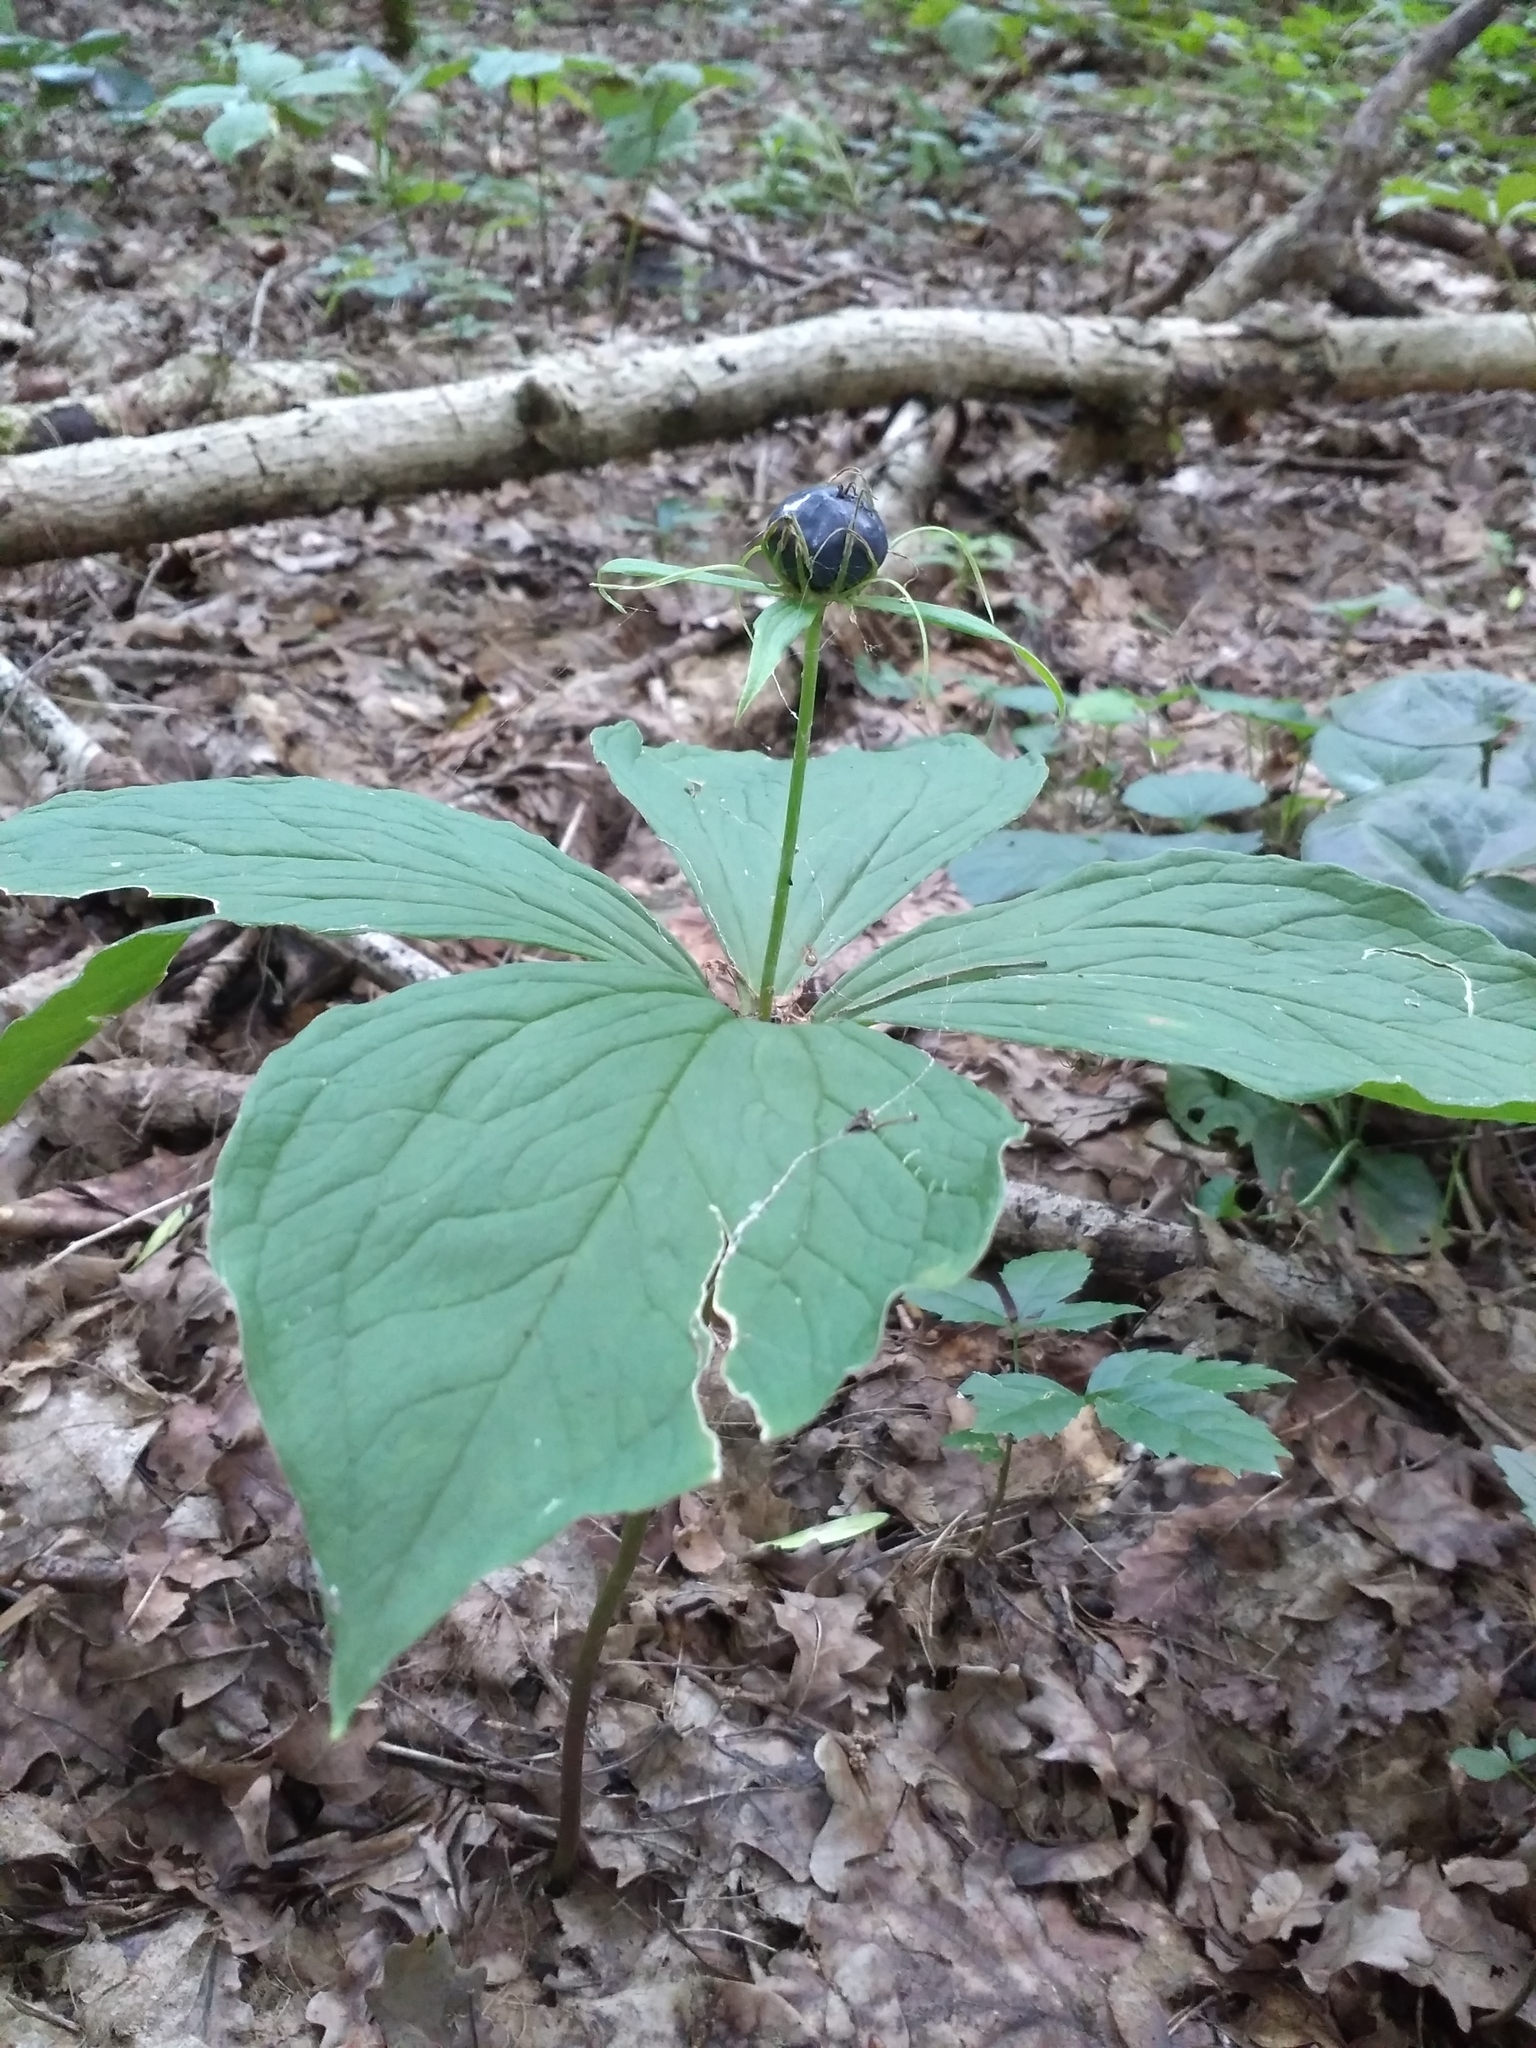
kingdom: Plantae
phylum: Tracheophyta
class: Liliopsida
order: Liliales
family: Melanthiaceae
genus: Paris
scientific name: Paris quadrifolia
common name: Herb-paris
